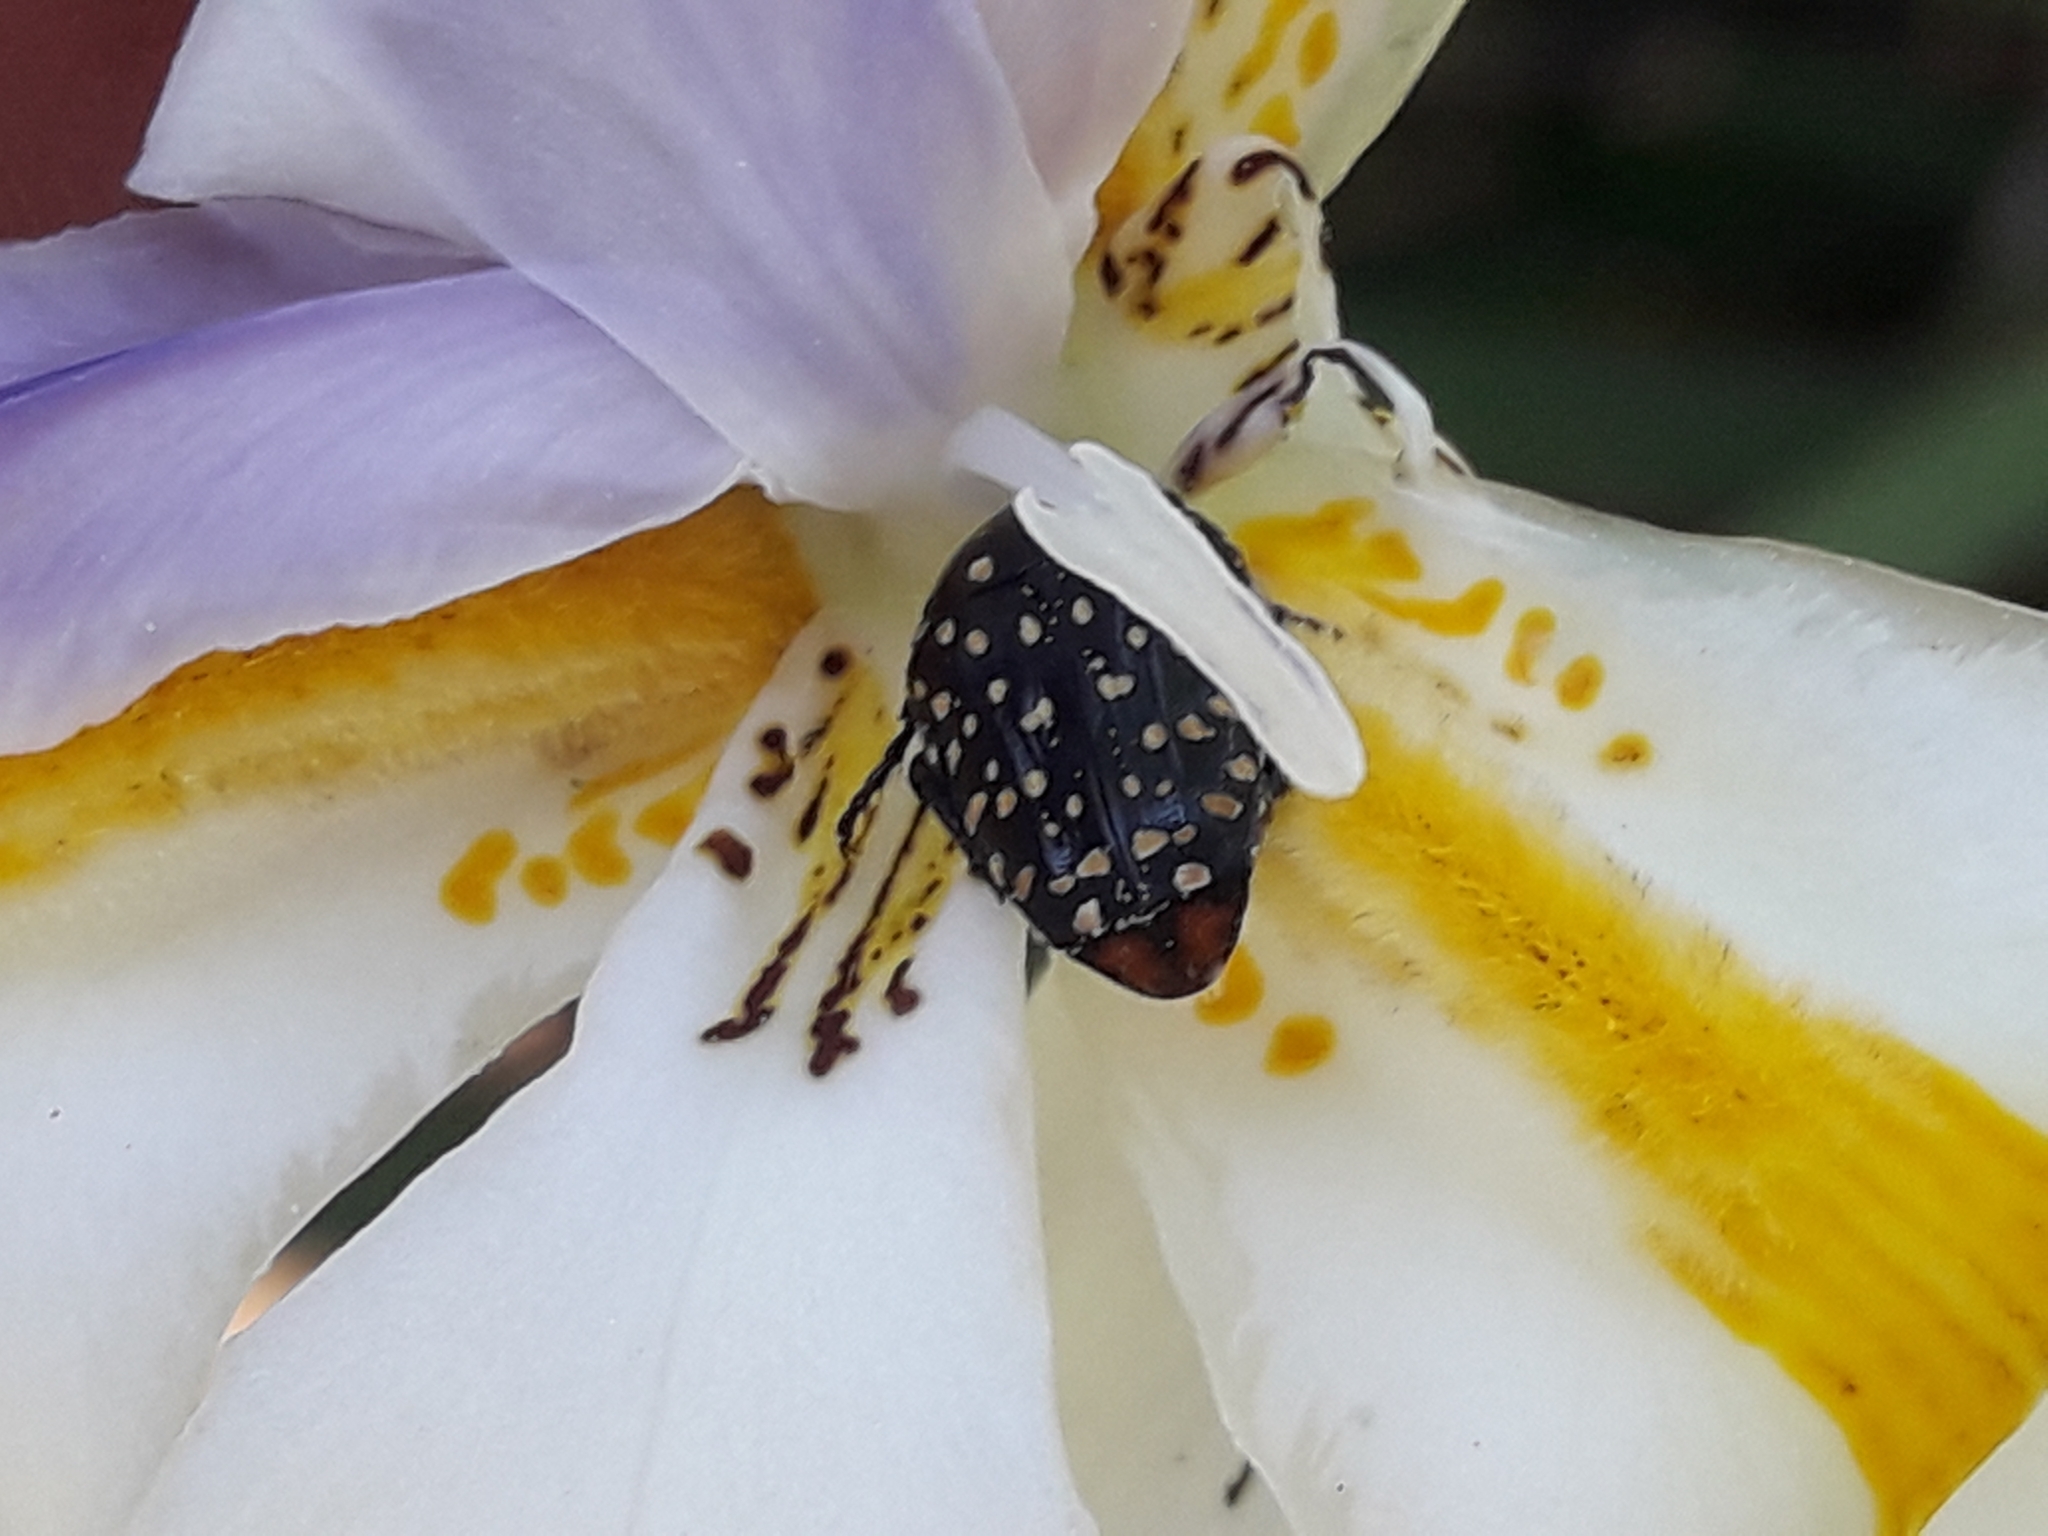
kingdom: Animalia
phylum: Arthropoda
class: Insecta
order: Coleoptera
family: Scarabaeidae
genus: Oxythyrea
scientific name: Oxythyrea
